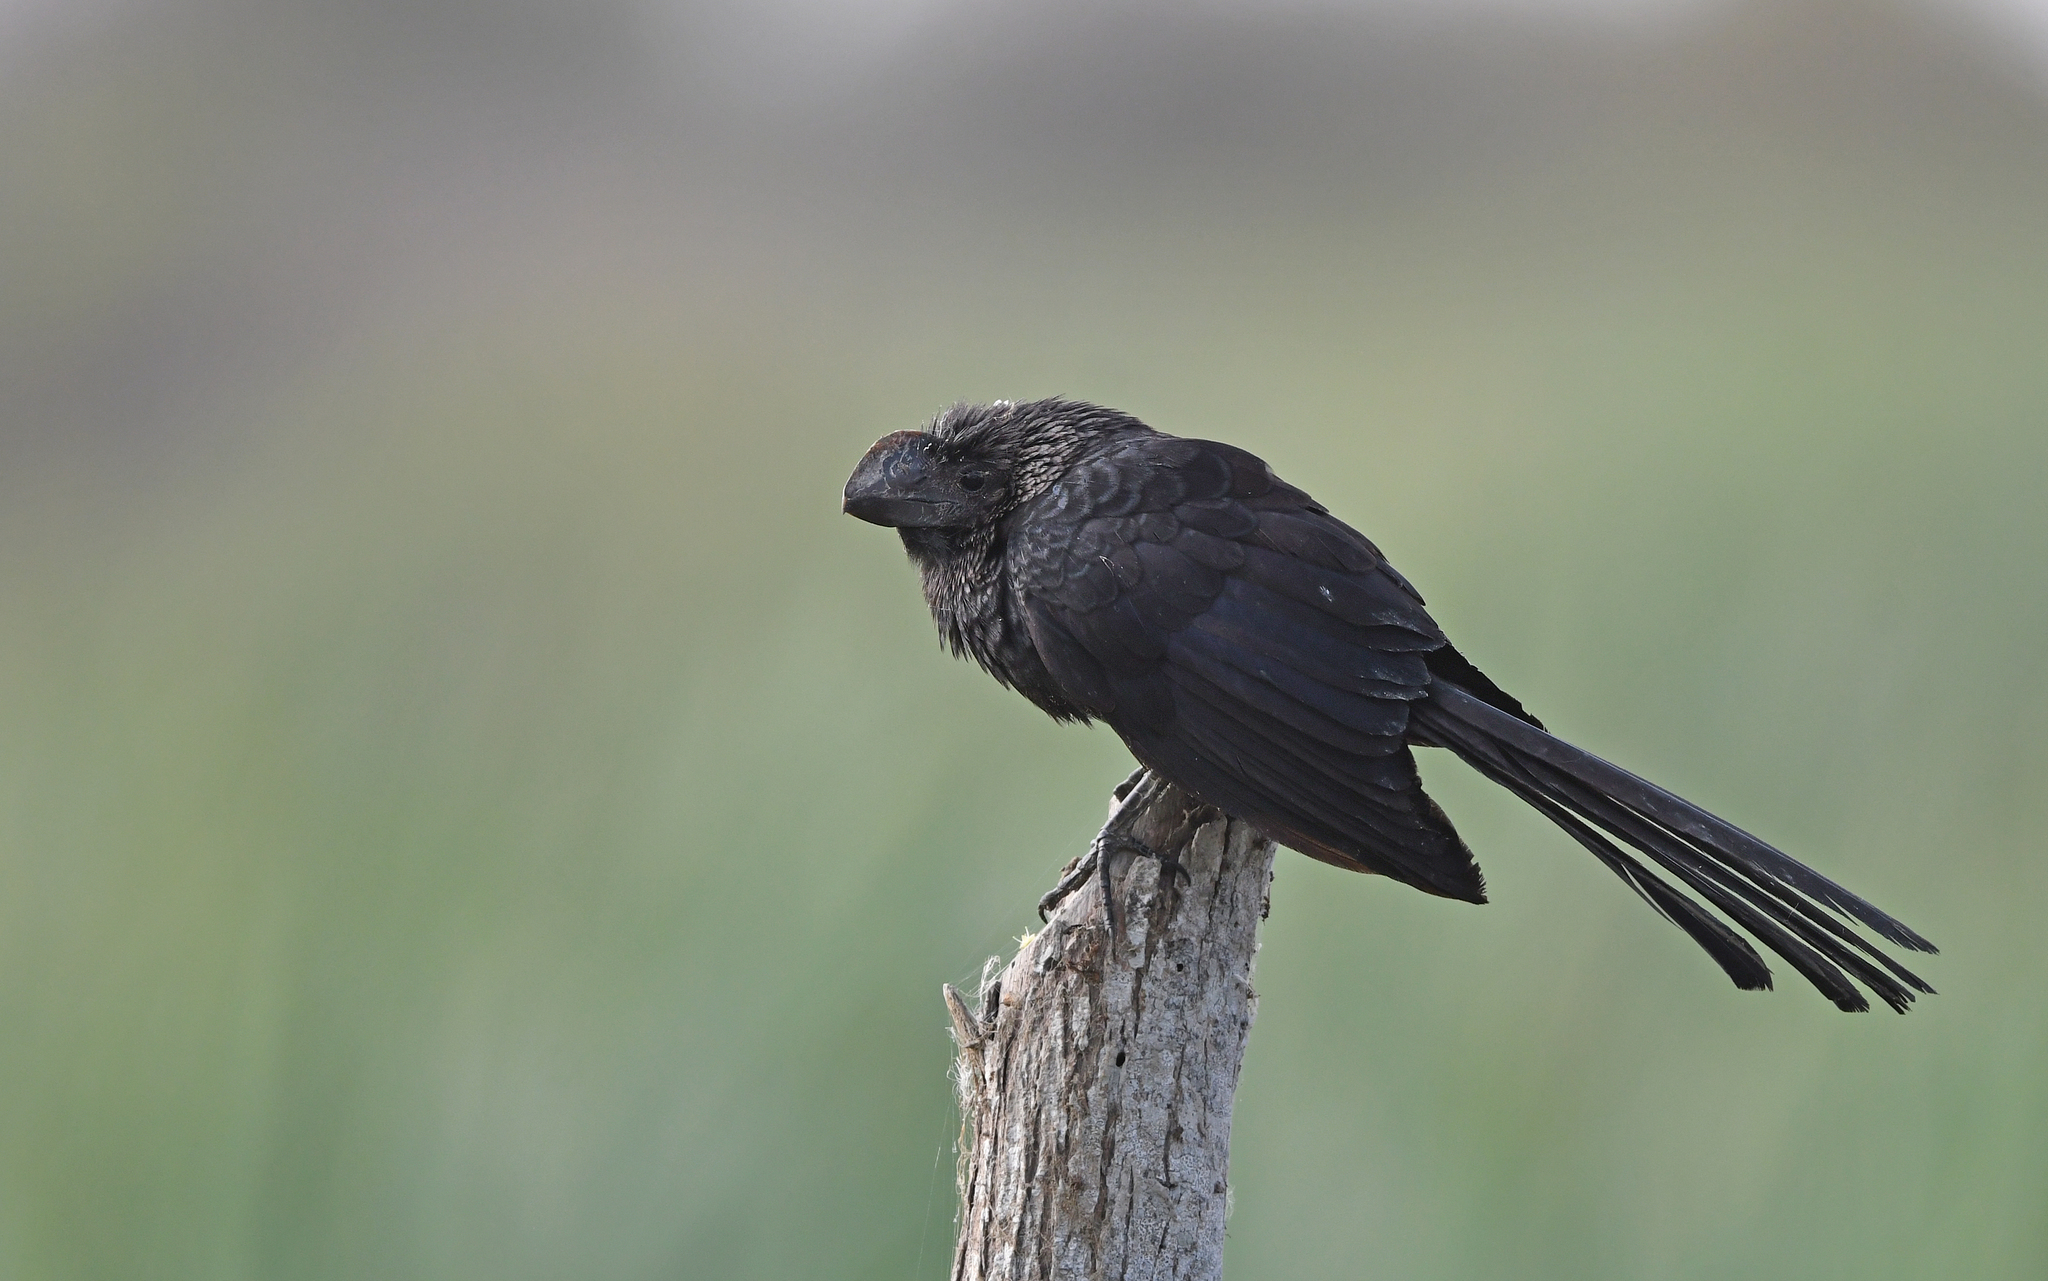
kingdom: Animalia
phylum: Chordata
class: Aves
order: Cuculiformes
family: Cuculidae
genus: Crotophaga
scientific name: Crotophaga ani
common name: Smooth-billed ani
